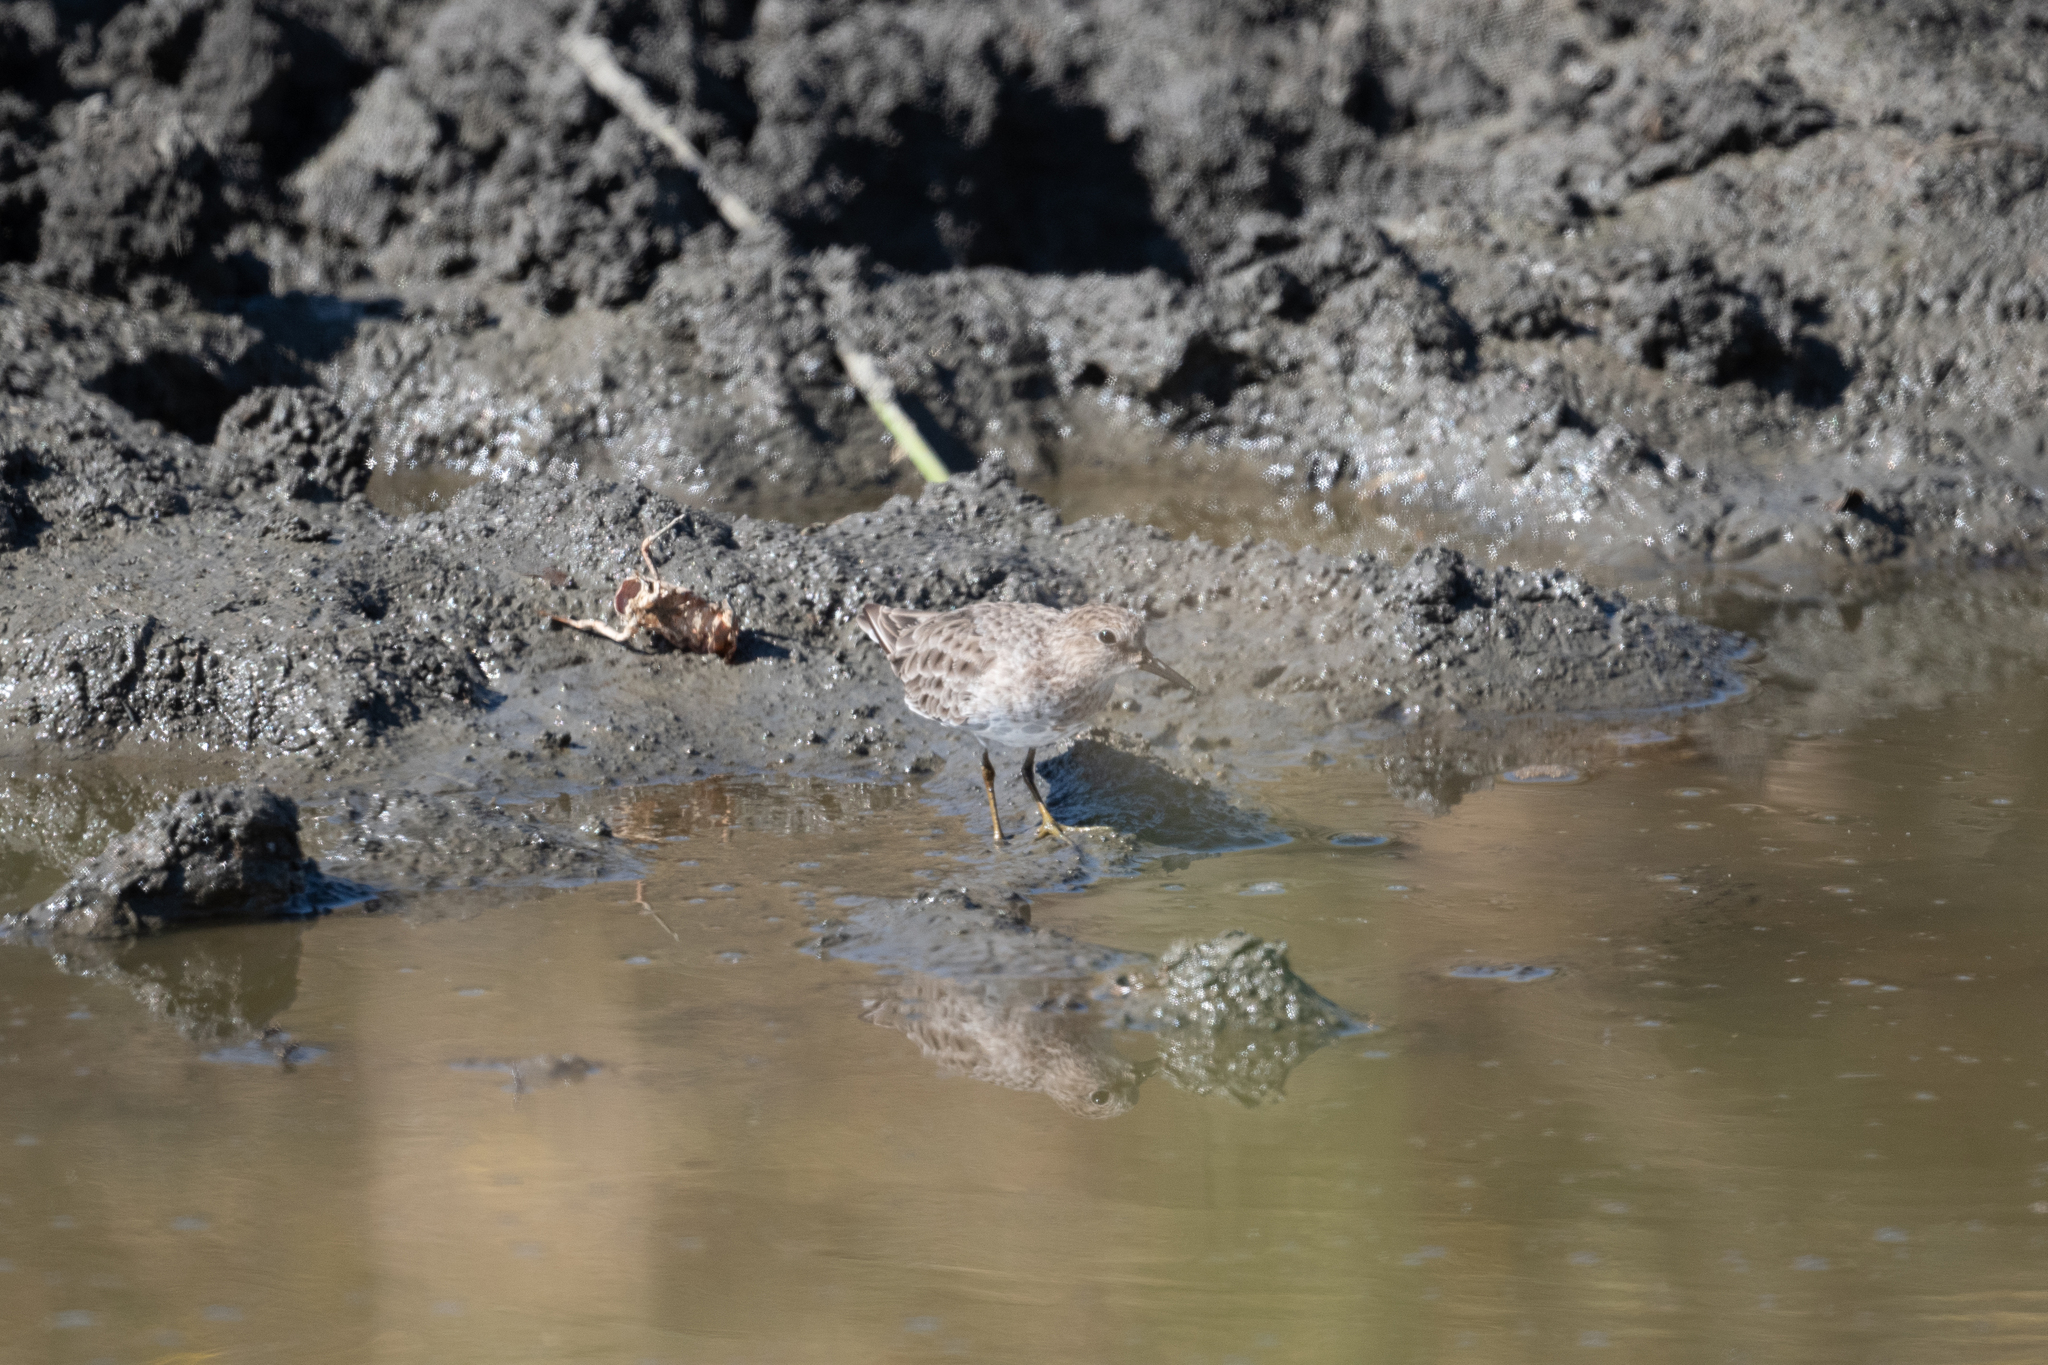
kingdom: Animalia
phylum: Chordata
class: Aves
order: Charadriiformes
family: Scolopacidae
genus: Calidris
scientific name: Calidris minutilla
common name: Least sandpiper
